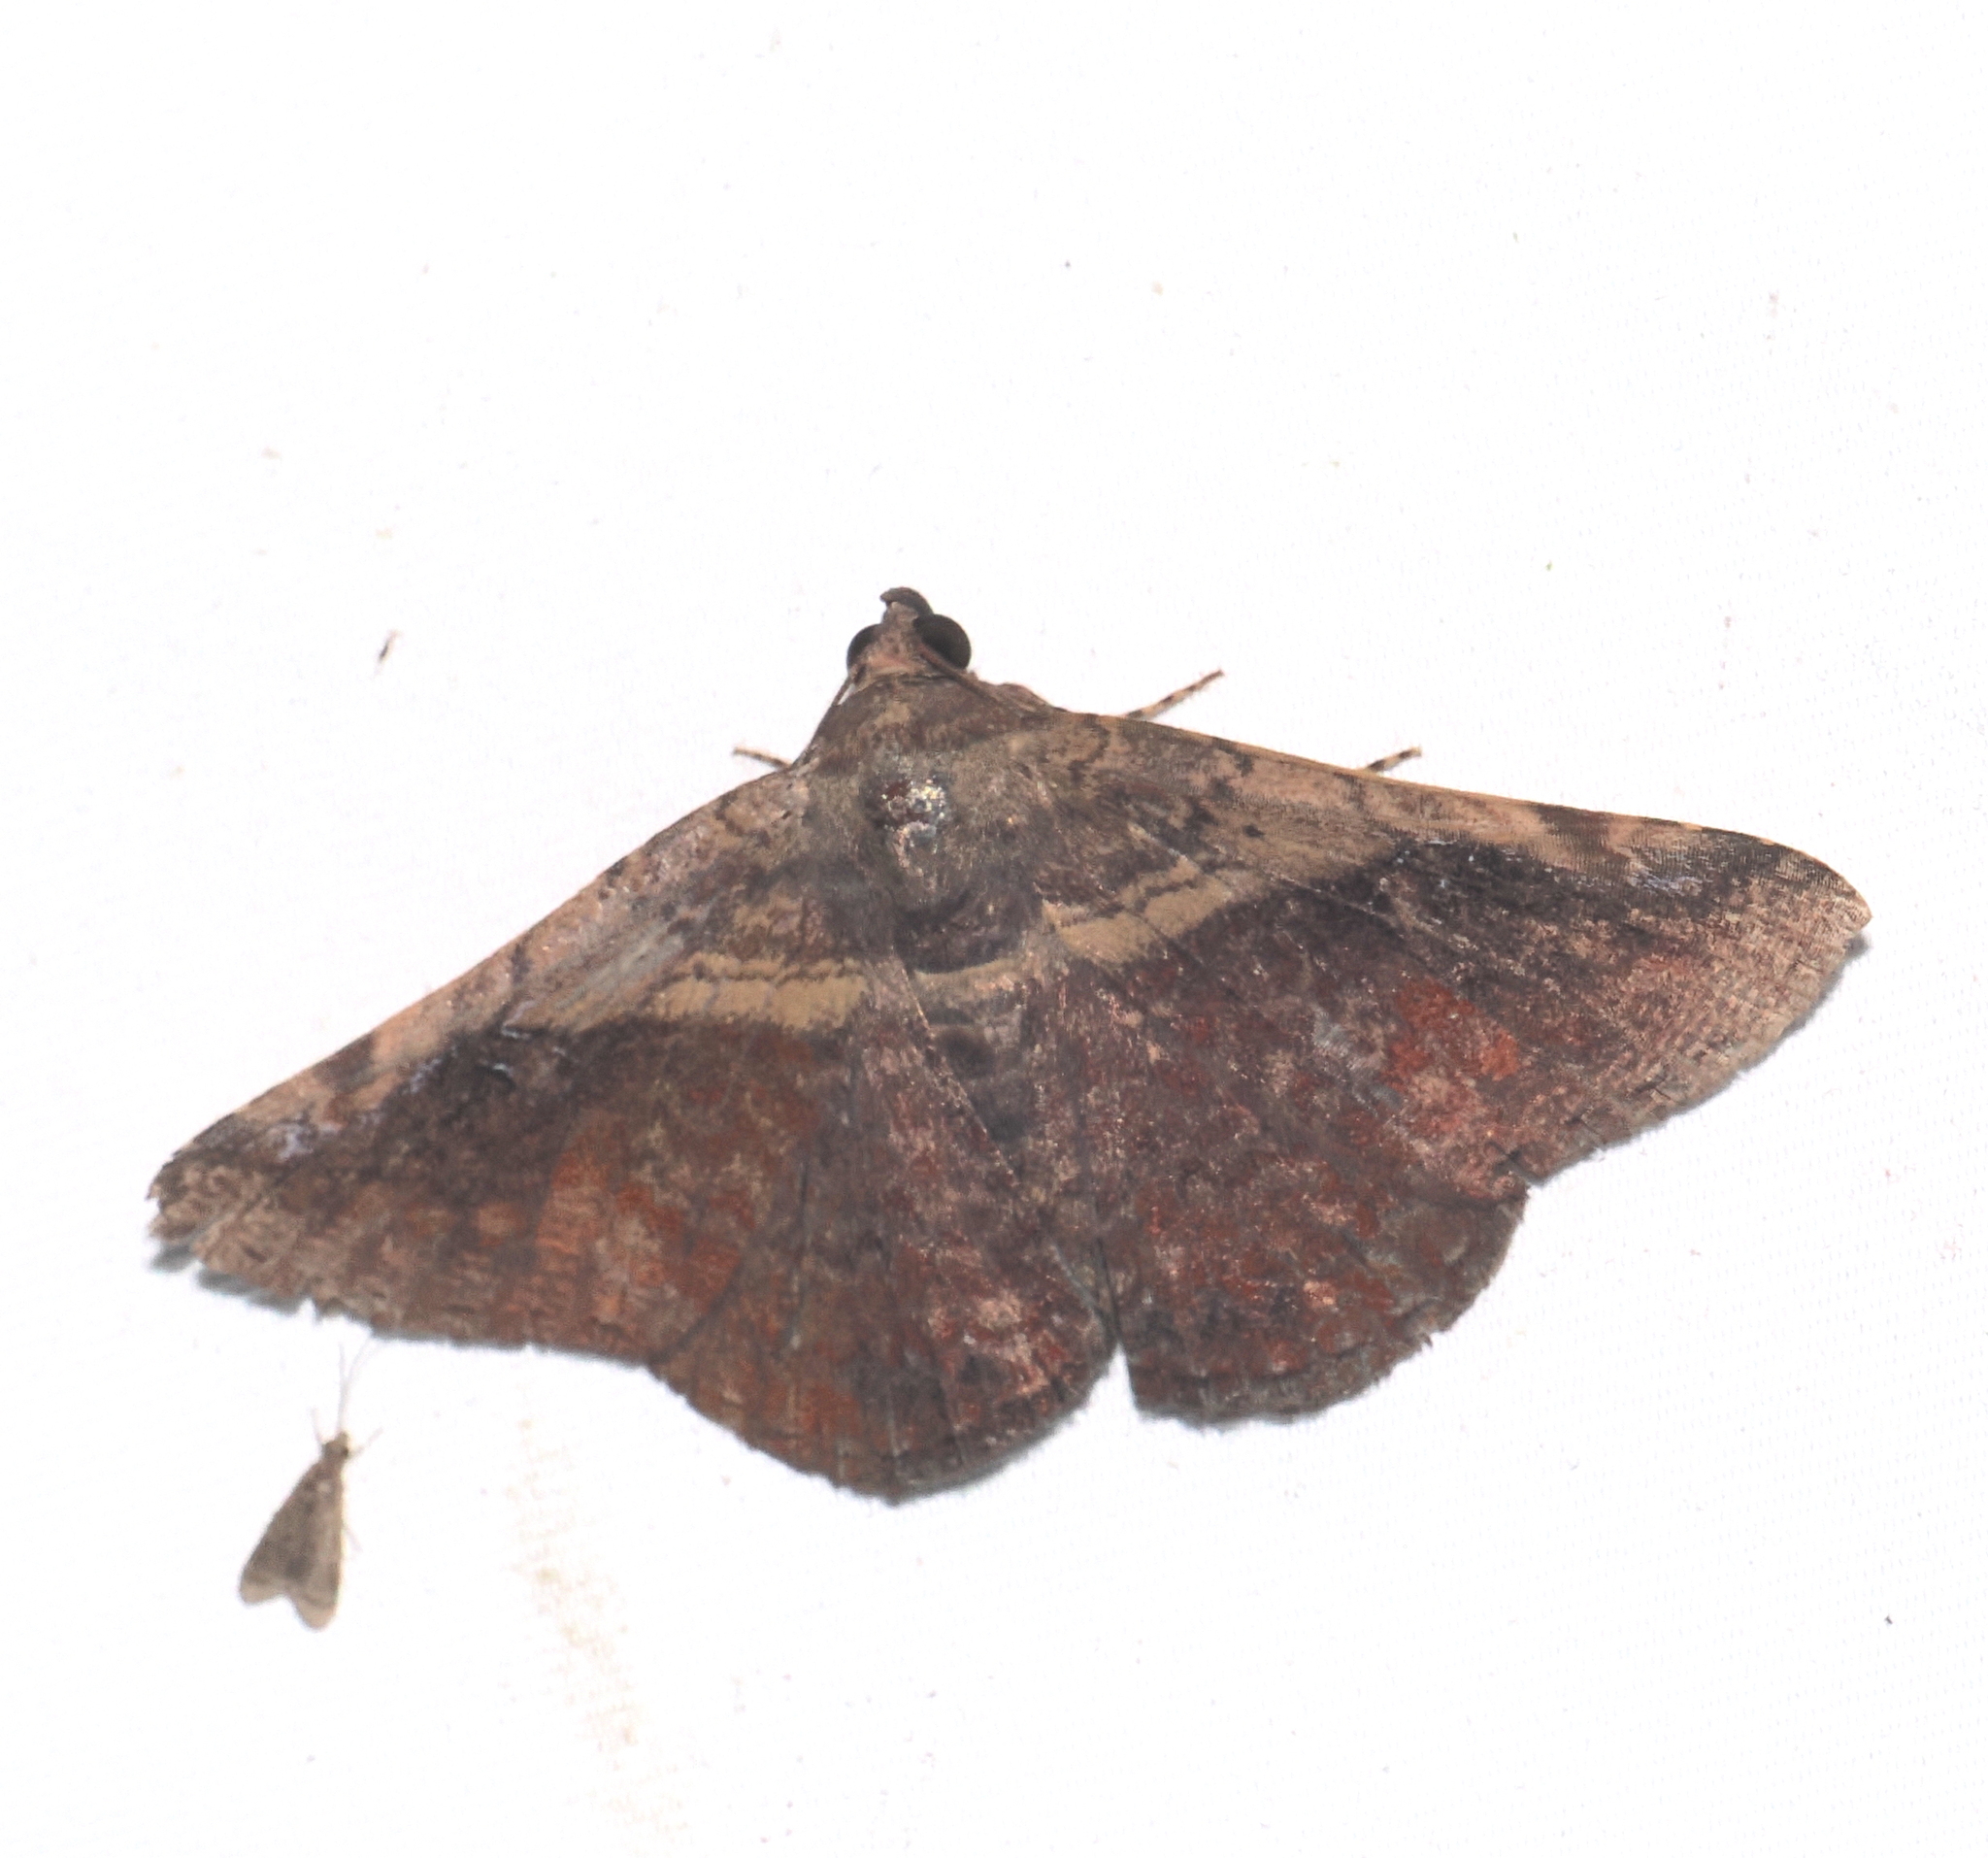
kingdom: Animalia
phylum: Arthropoda
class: Insecta
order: Lepidoptera
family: Erebidae
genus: Arsaciodes
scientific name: Arsaciodes rufa
